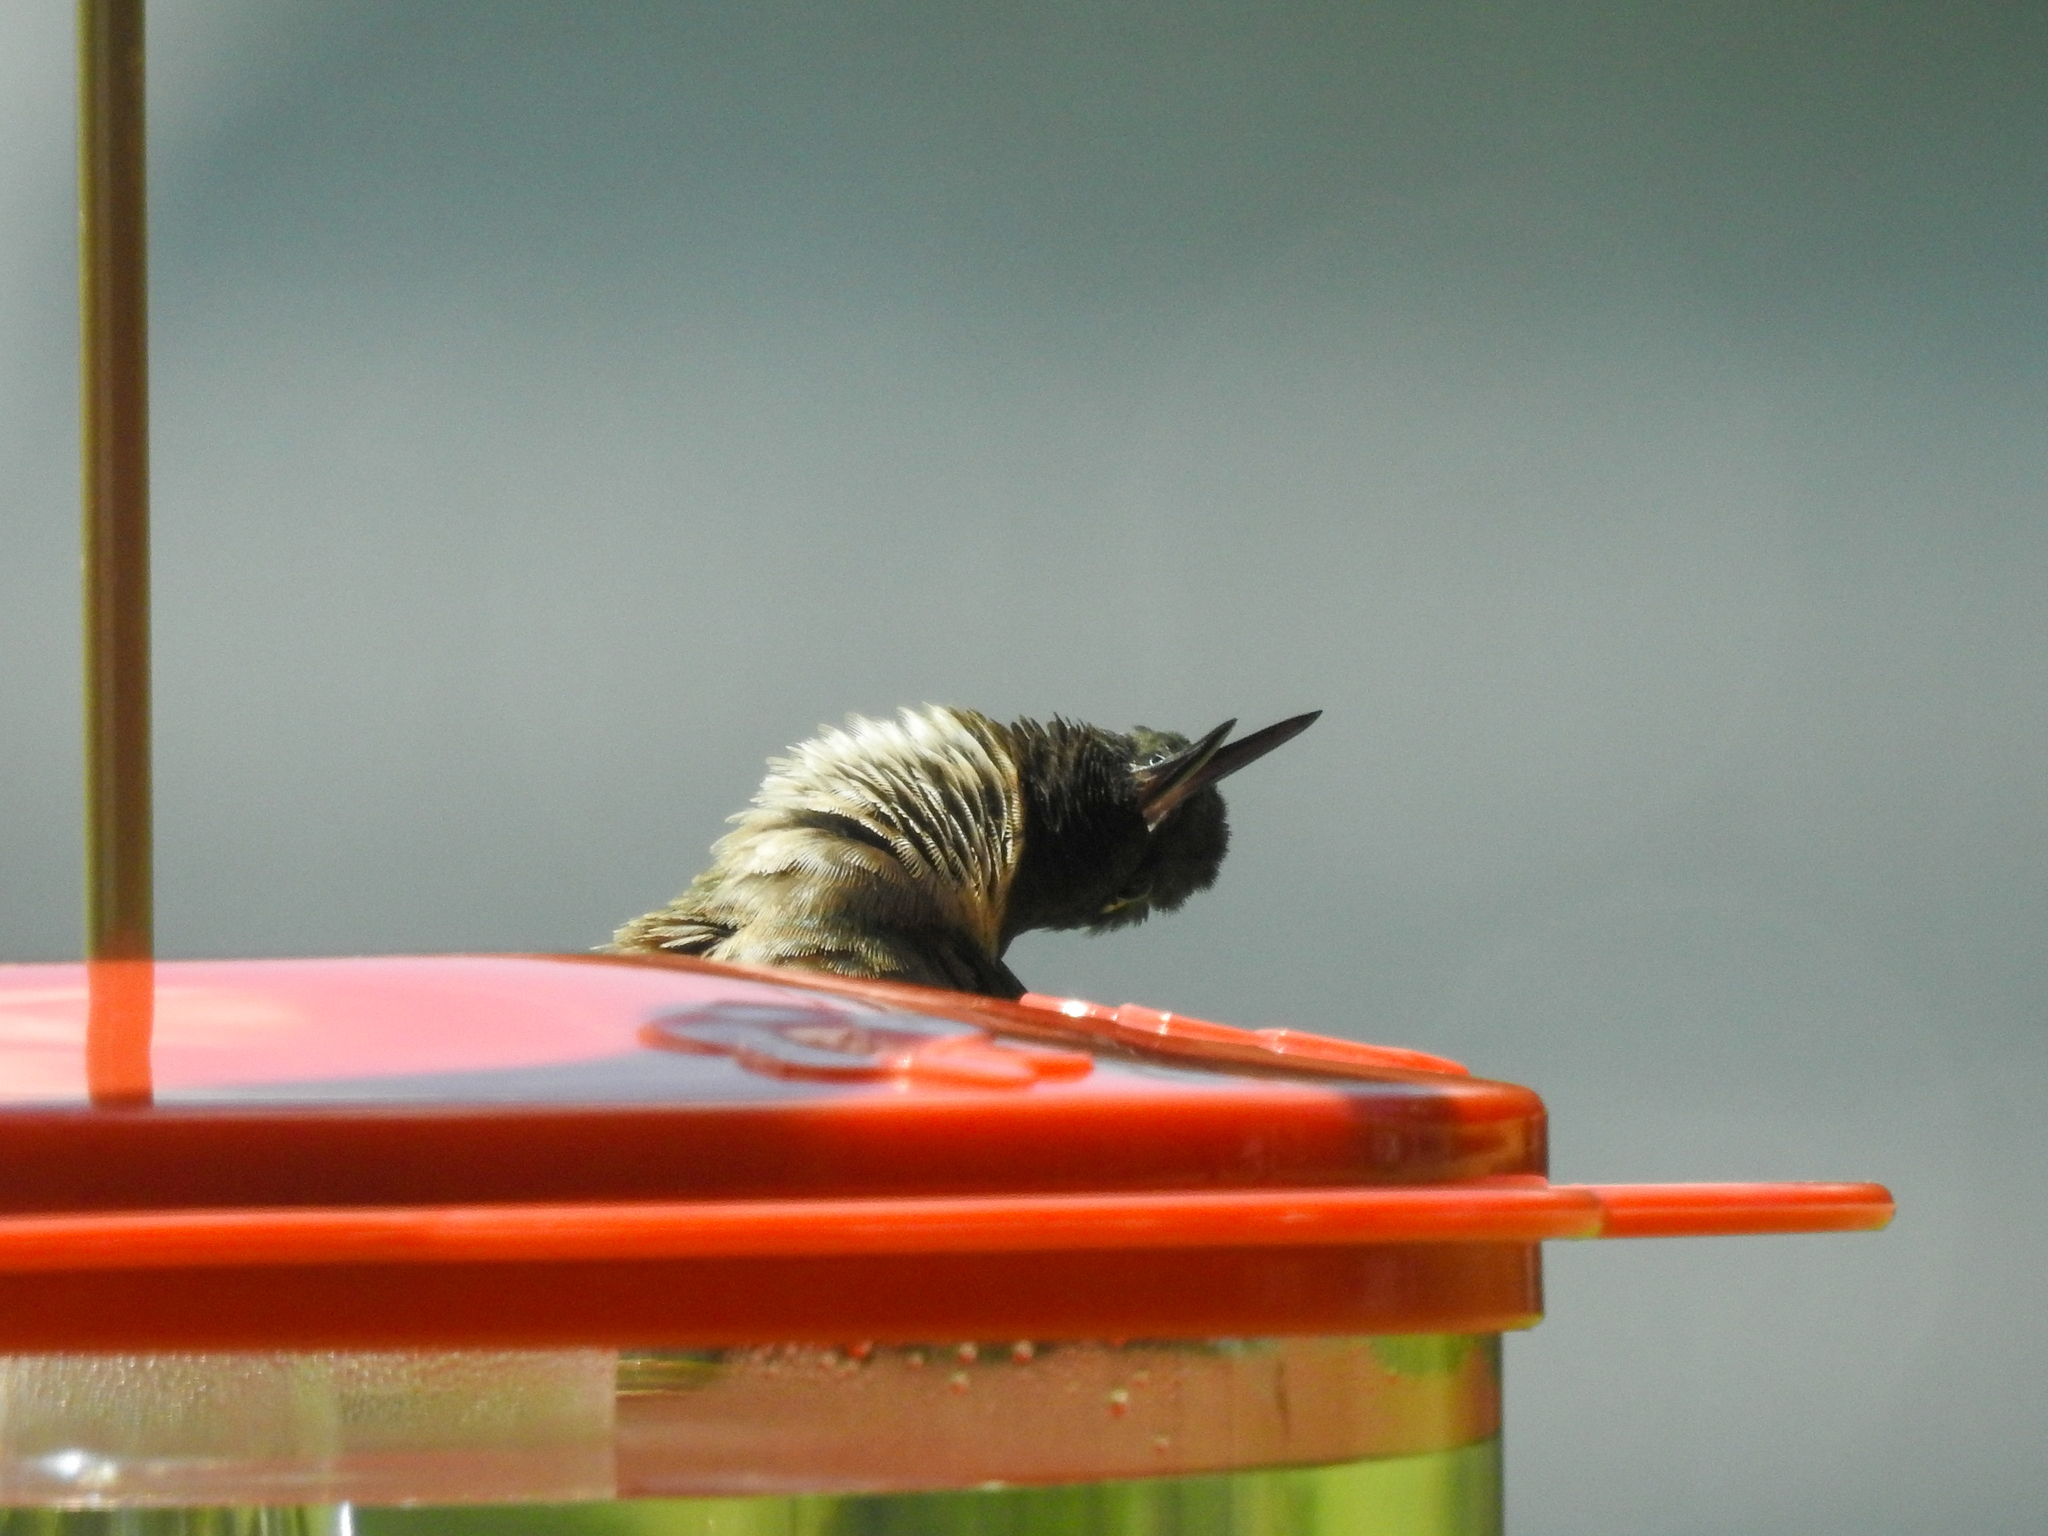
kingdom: Animalia
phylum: Chordata
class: Aves
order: Apodiformes
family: Trochilidae
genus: Archilochus
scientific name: Archilochus colubris
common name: Ruby-throated hummingbird
